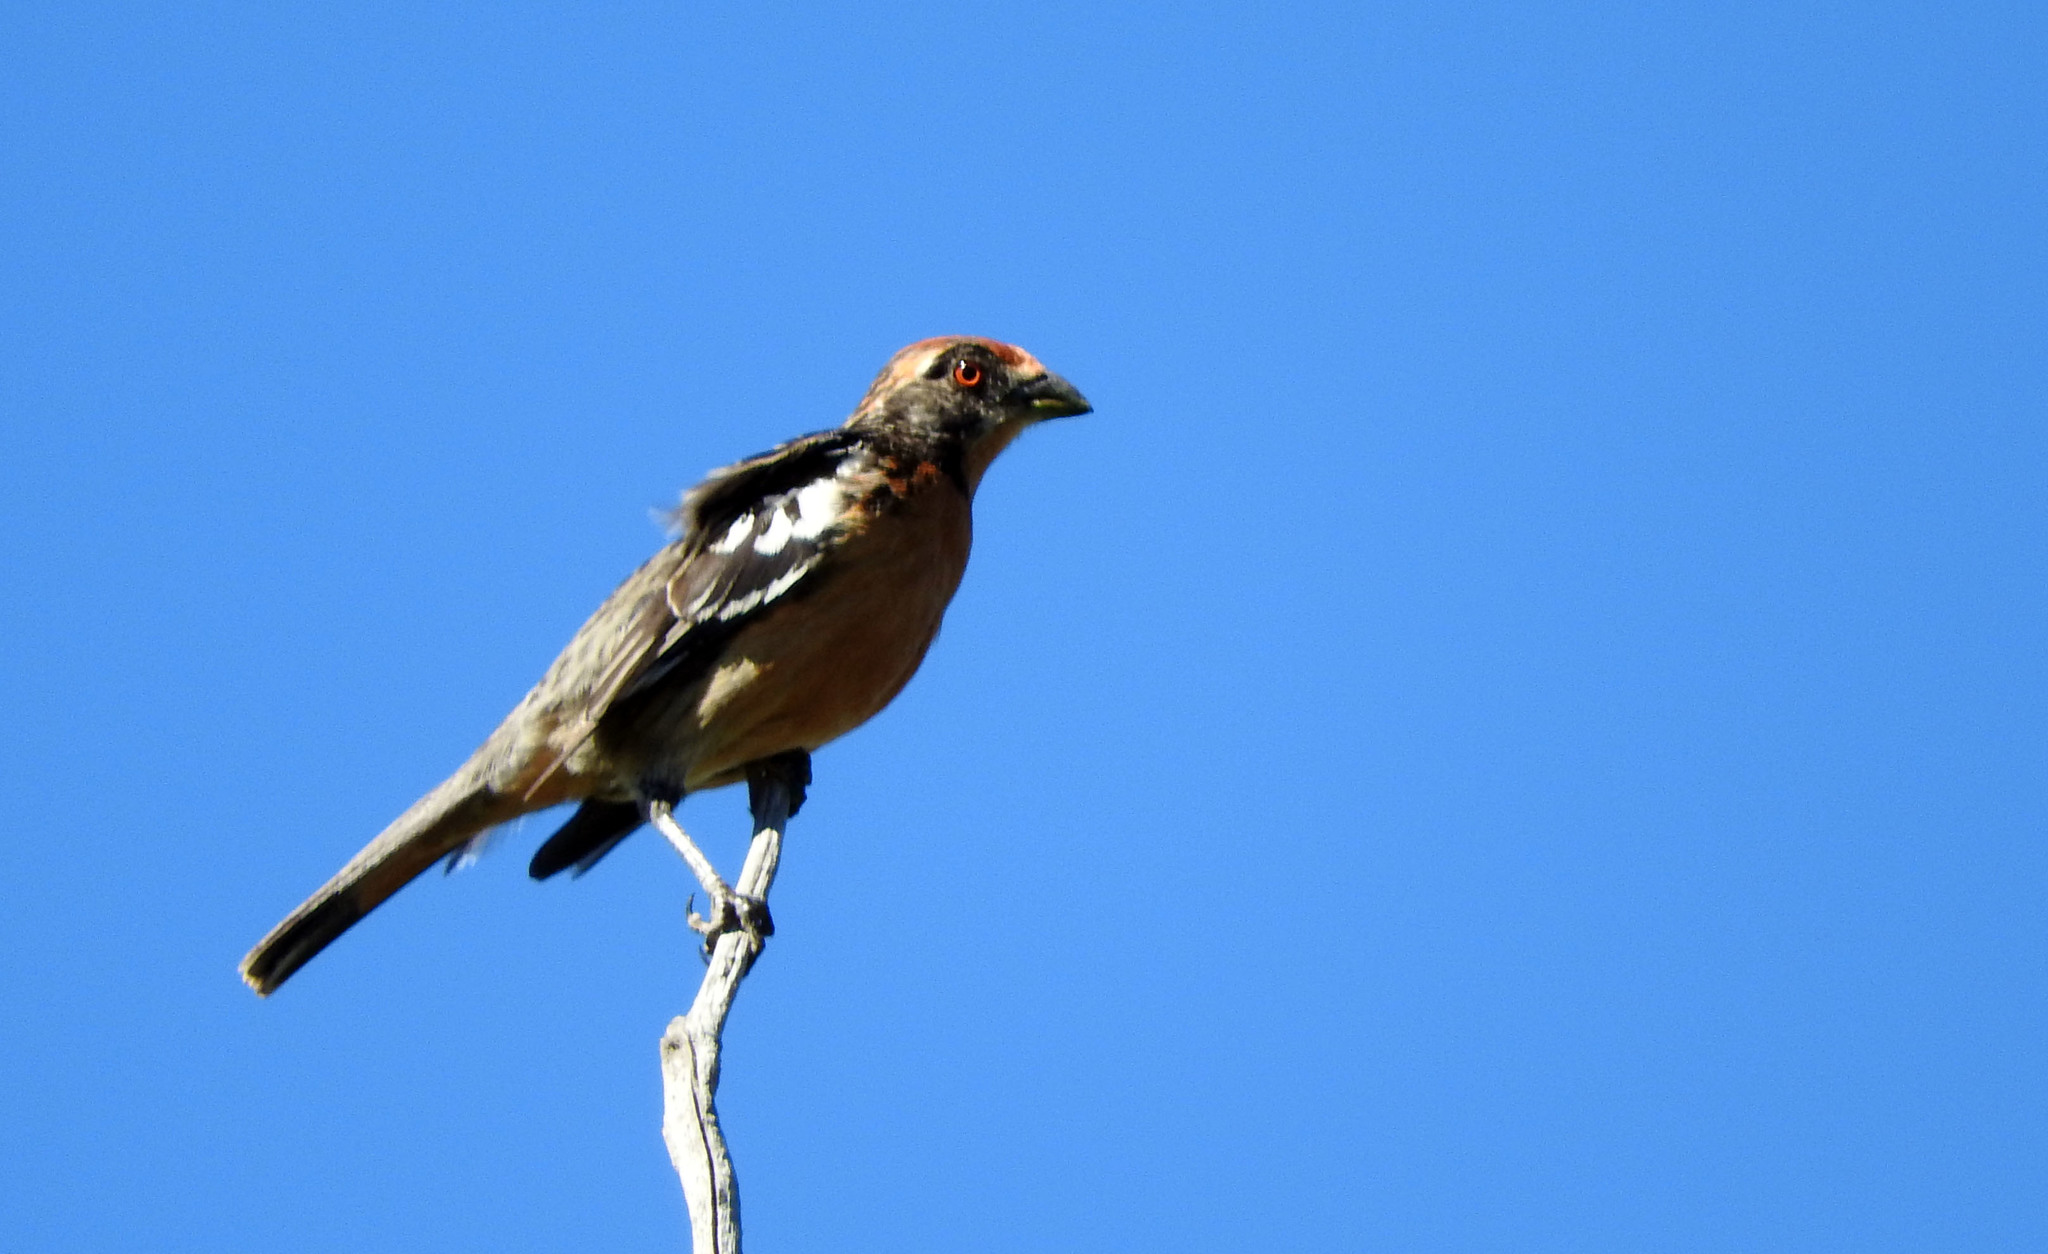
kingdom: Animalia
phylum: Chordata
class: Aves
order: Passeriformes
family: Cotingidae
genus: Phytotoma
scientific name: Phytotoma rara
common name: Rufous-tailed plantcutter
